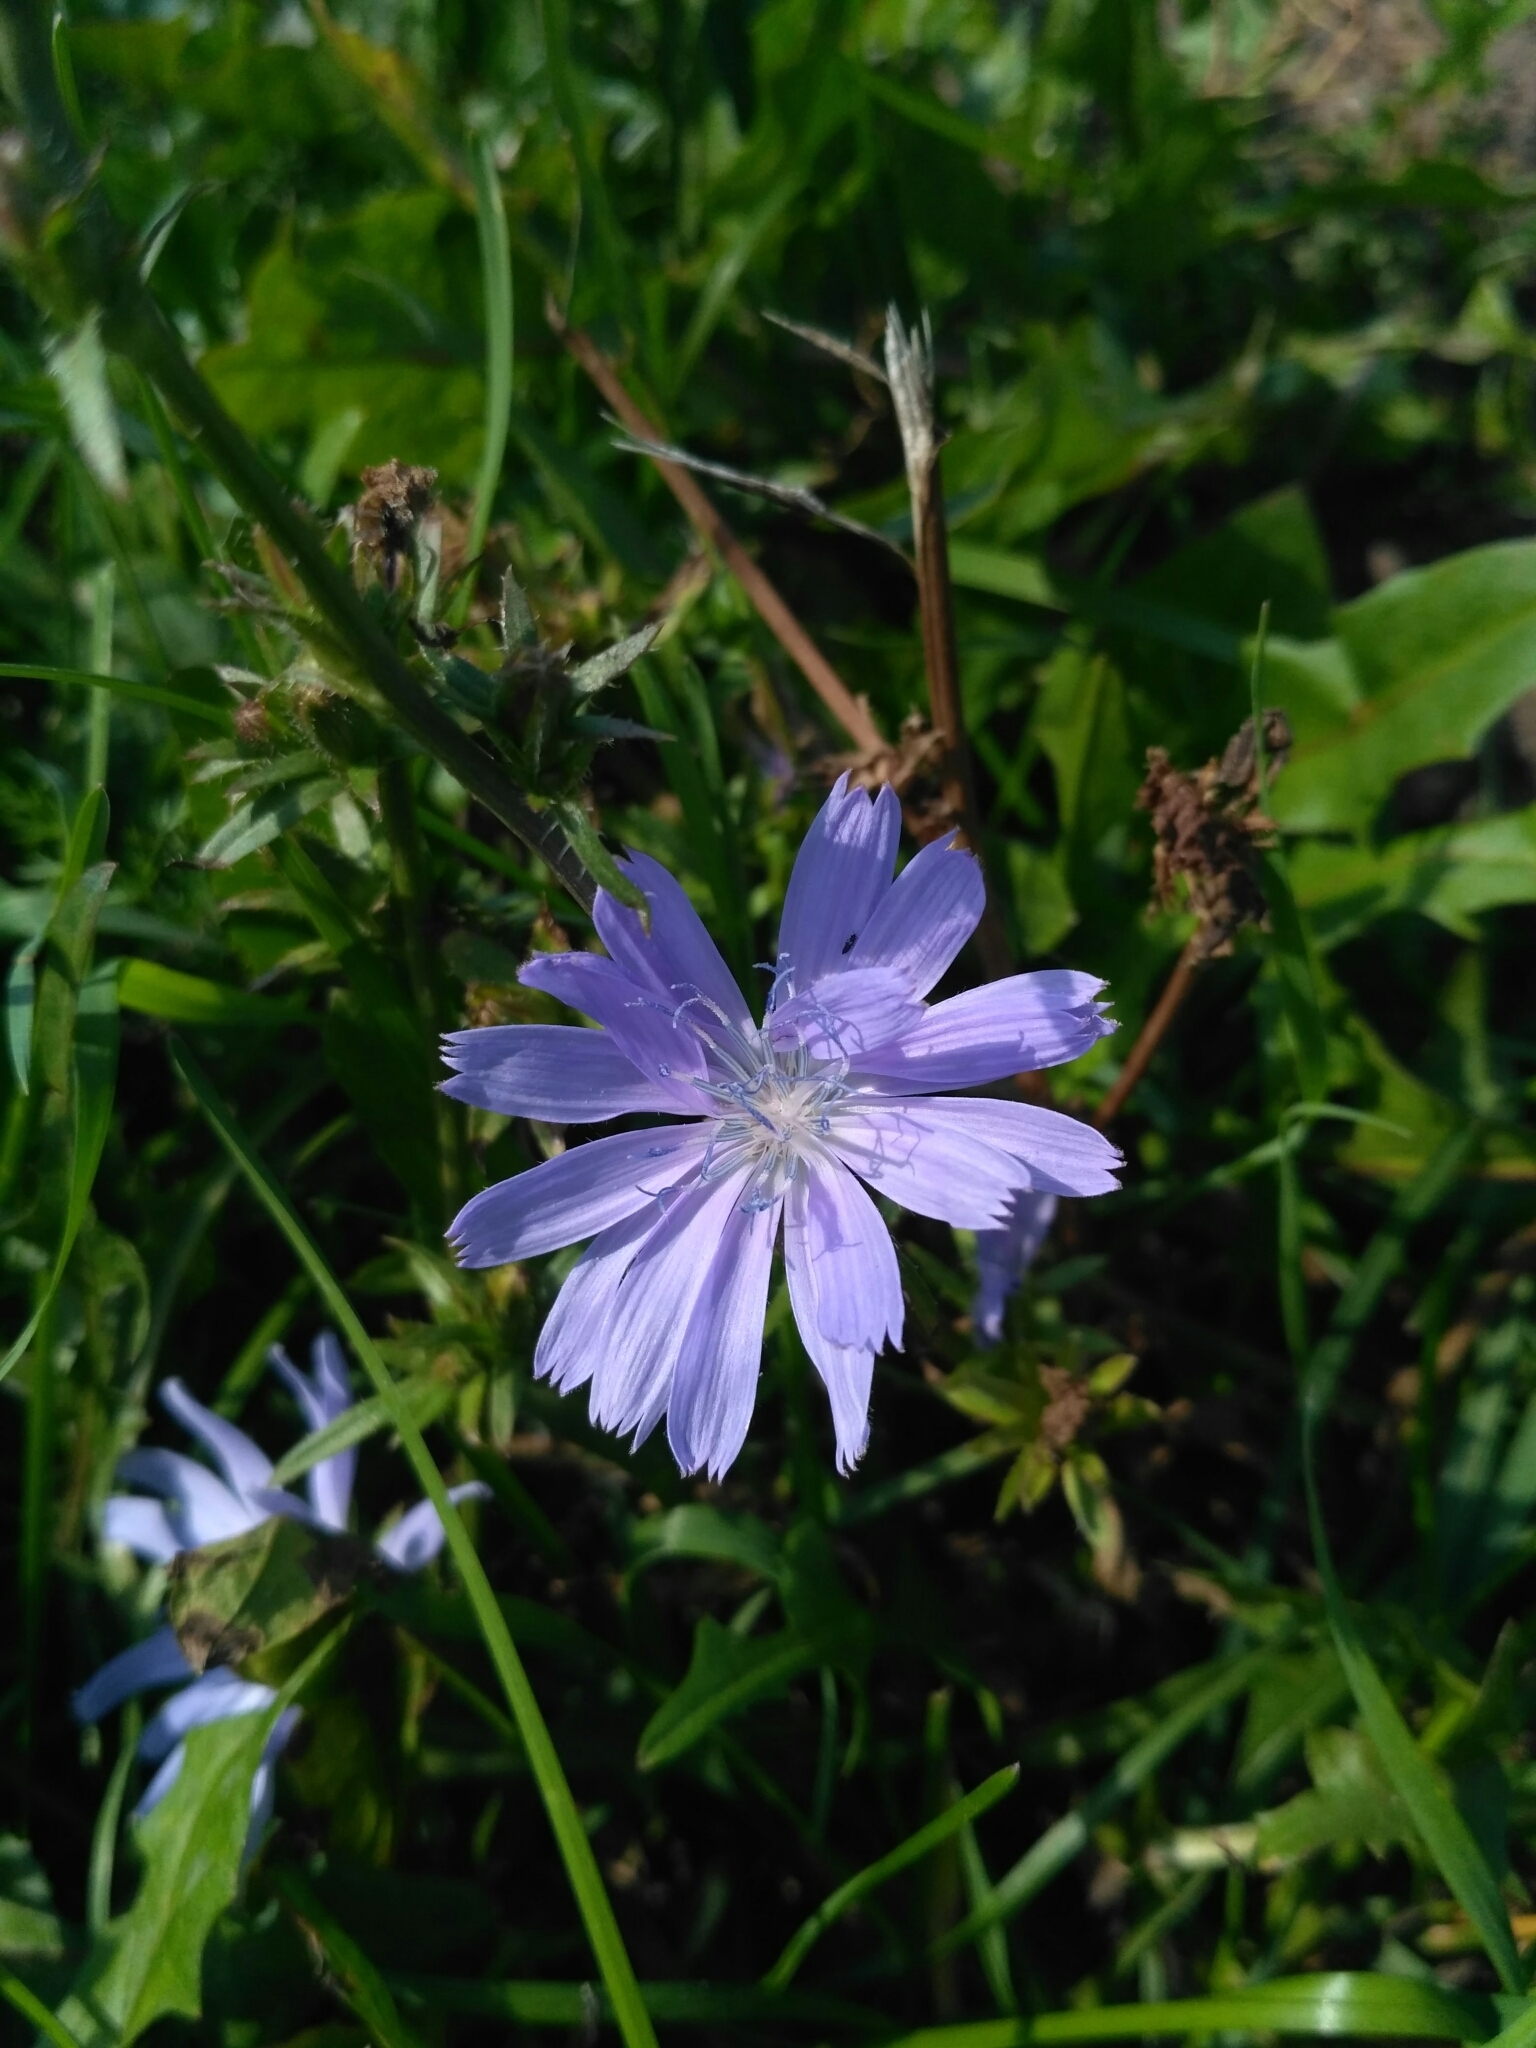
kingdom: Plantae
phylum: Tracheophyta
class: Magnoliopsida
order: Asterales
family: Asteraceae
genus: Cichorium
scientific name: Cichorium intybus
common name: Chicory
